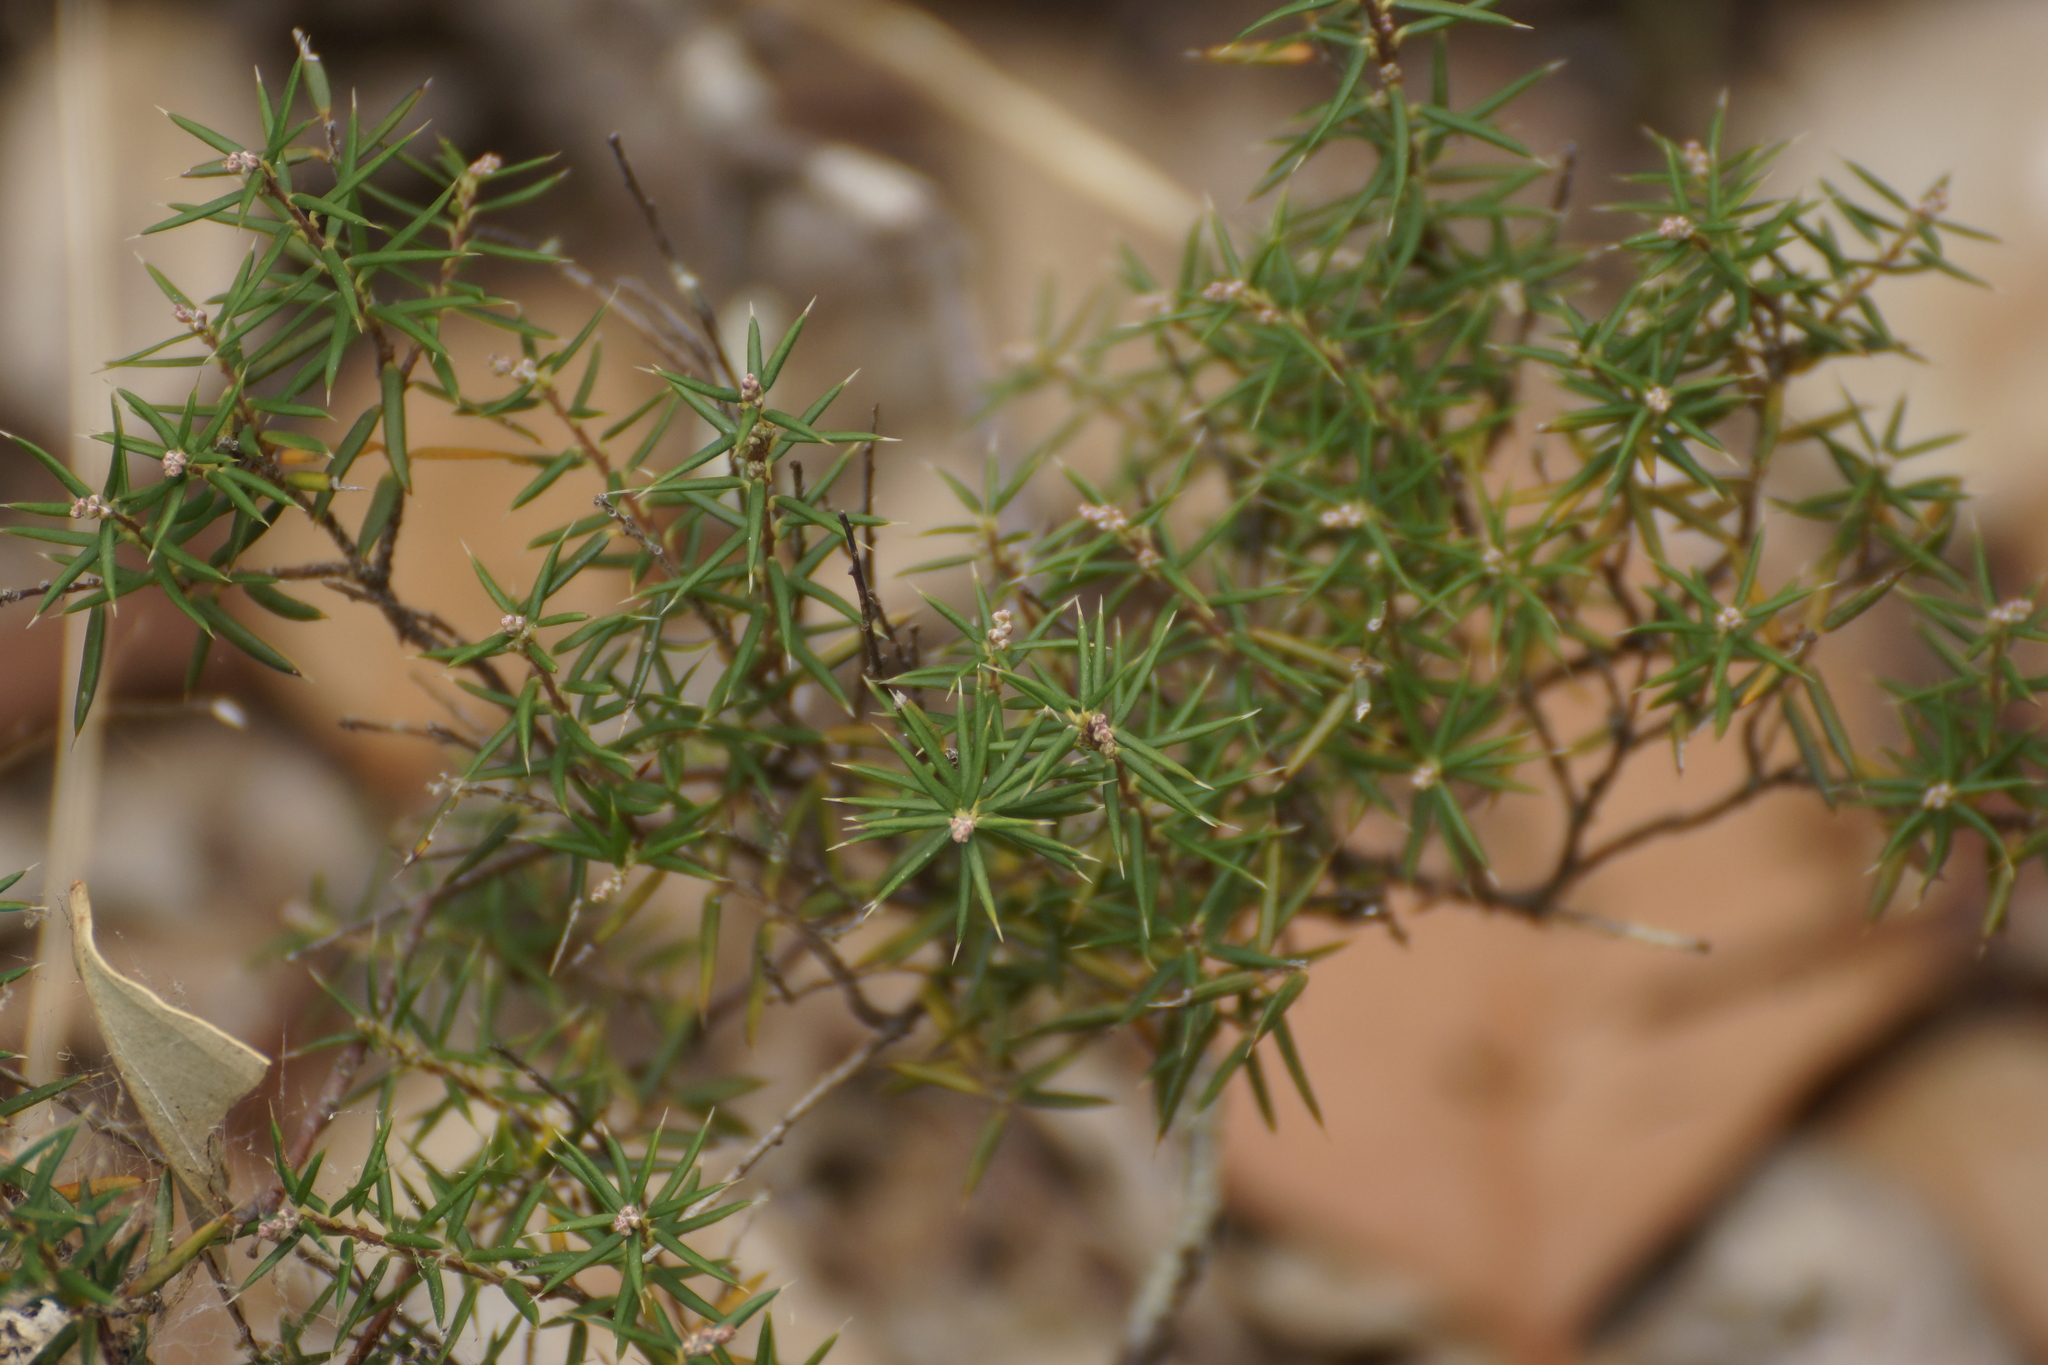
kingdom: Plantae
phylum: Tracheophyta
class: Magnoliopsida
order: Ericales
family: Ericaceae
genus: Lissanthe
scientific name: Lissanthe strigosa
